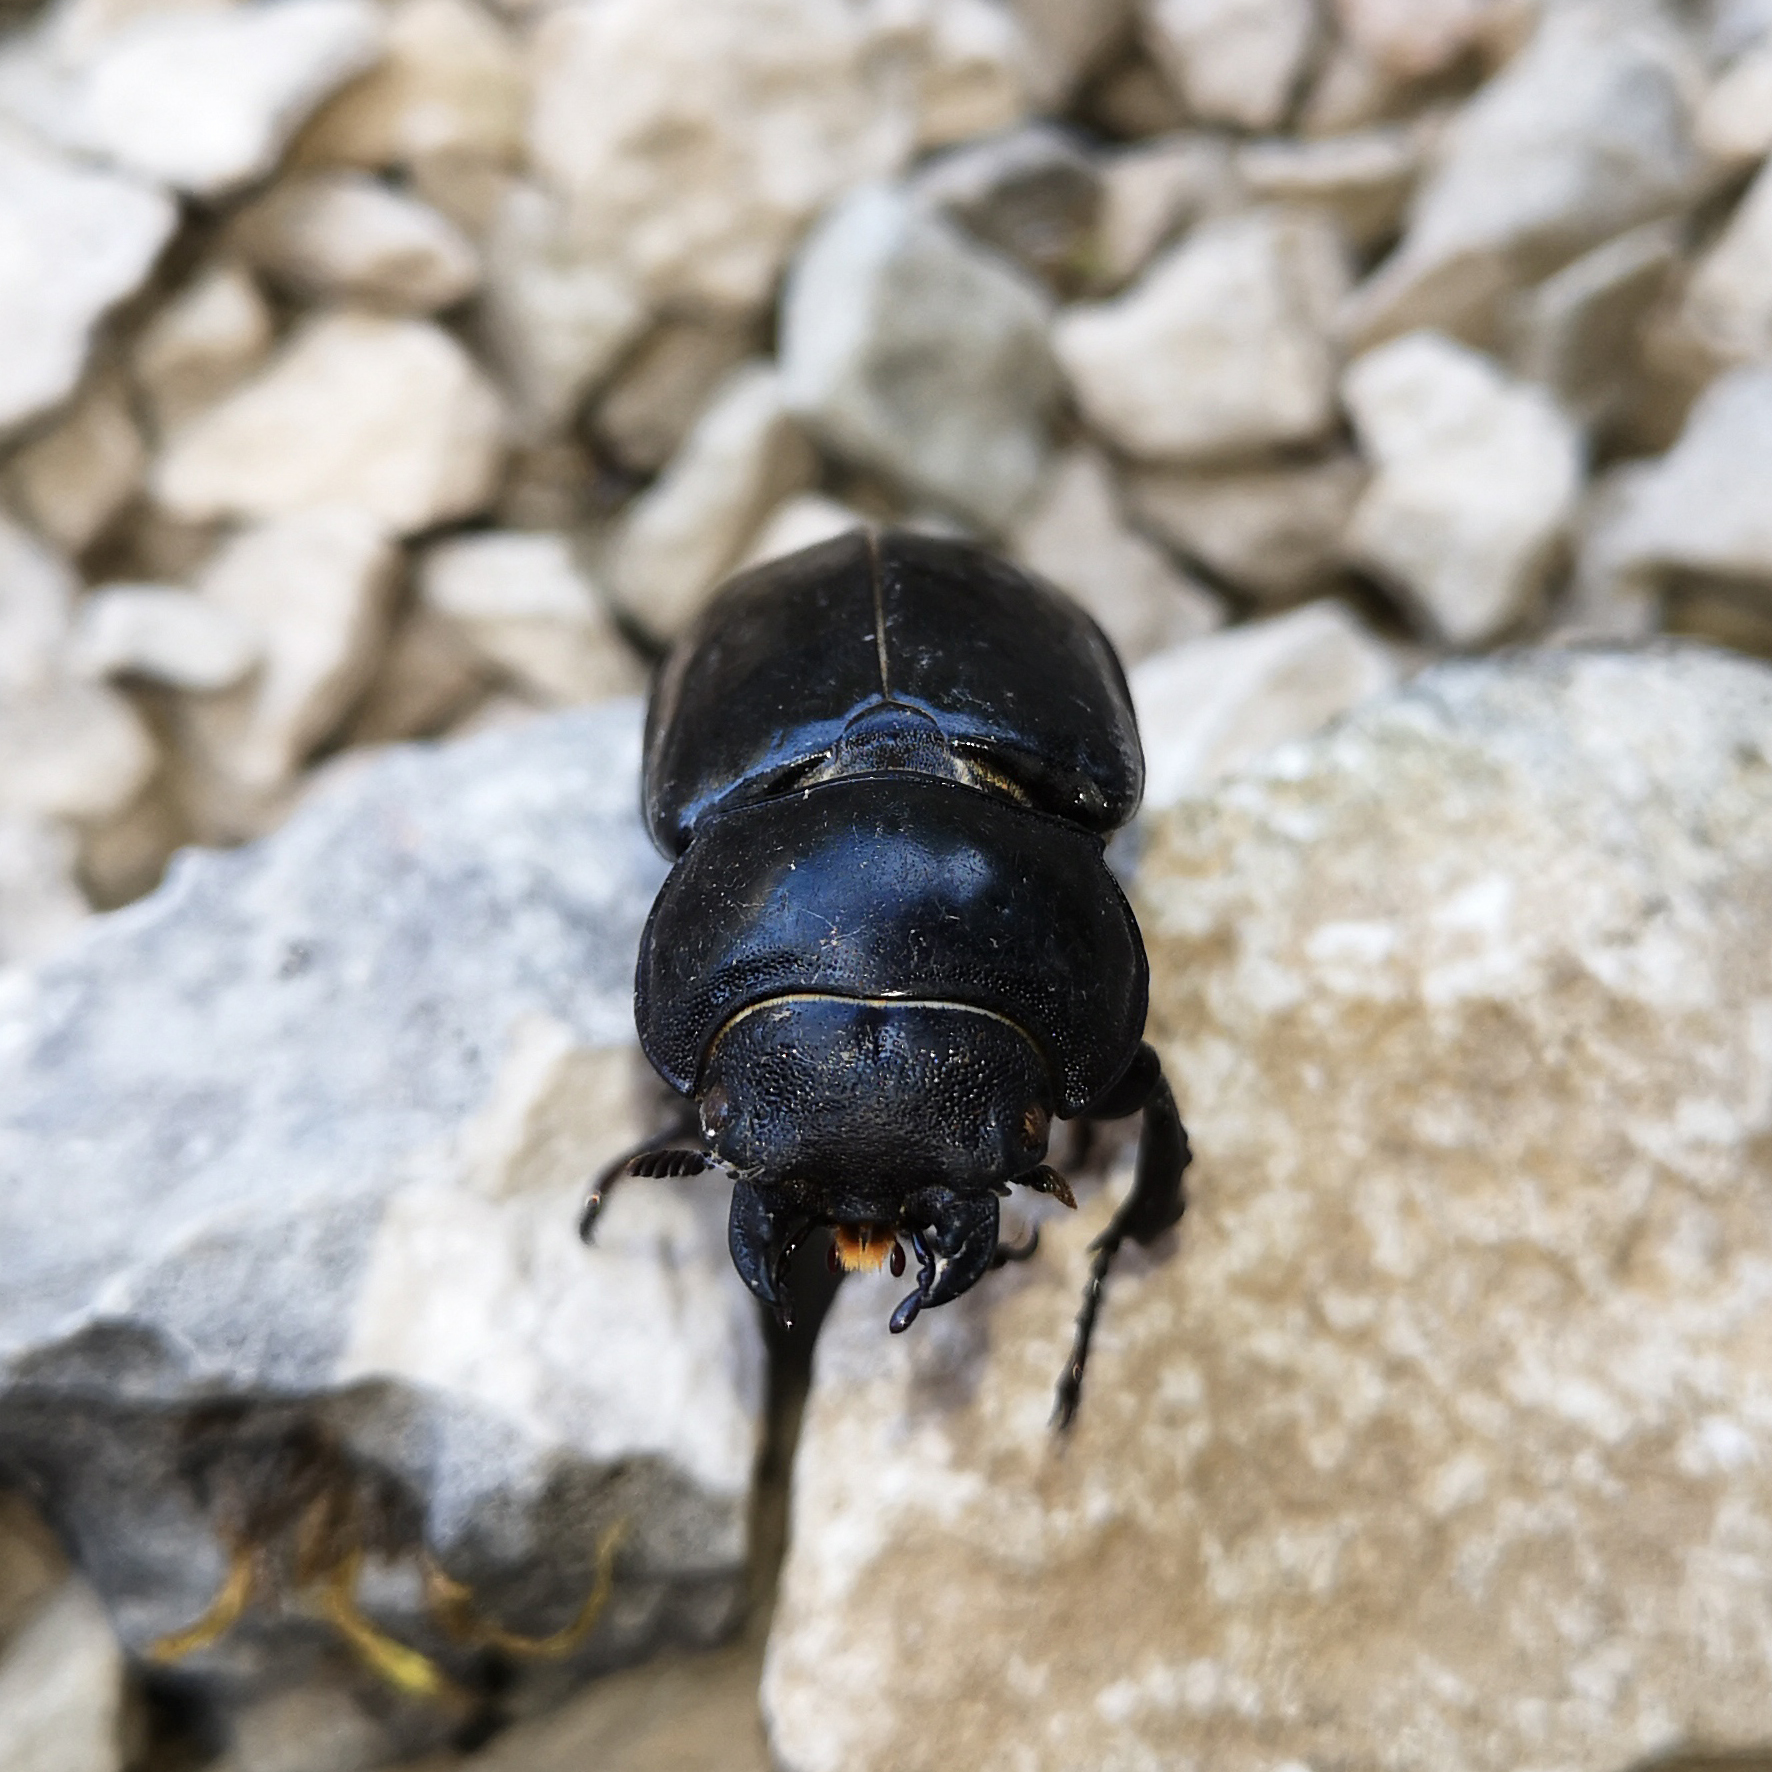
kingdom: Animalia
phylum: Arthropoda
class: Insecta
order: Coleoptera
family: Lucanidae
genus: Lucanus
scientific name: Lucanus barbarossa
